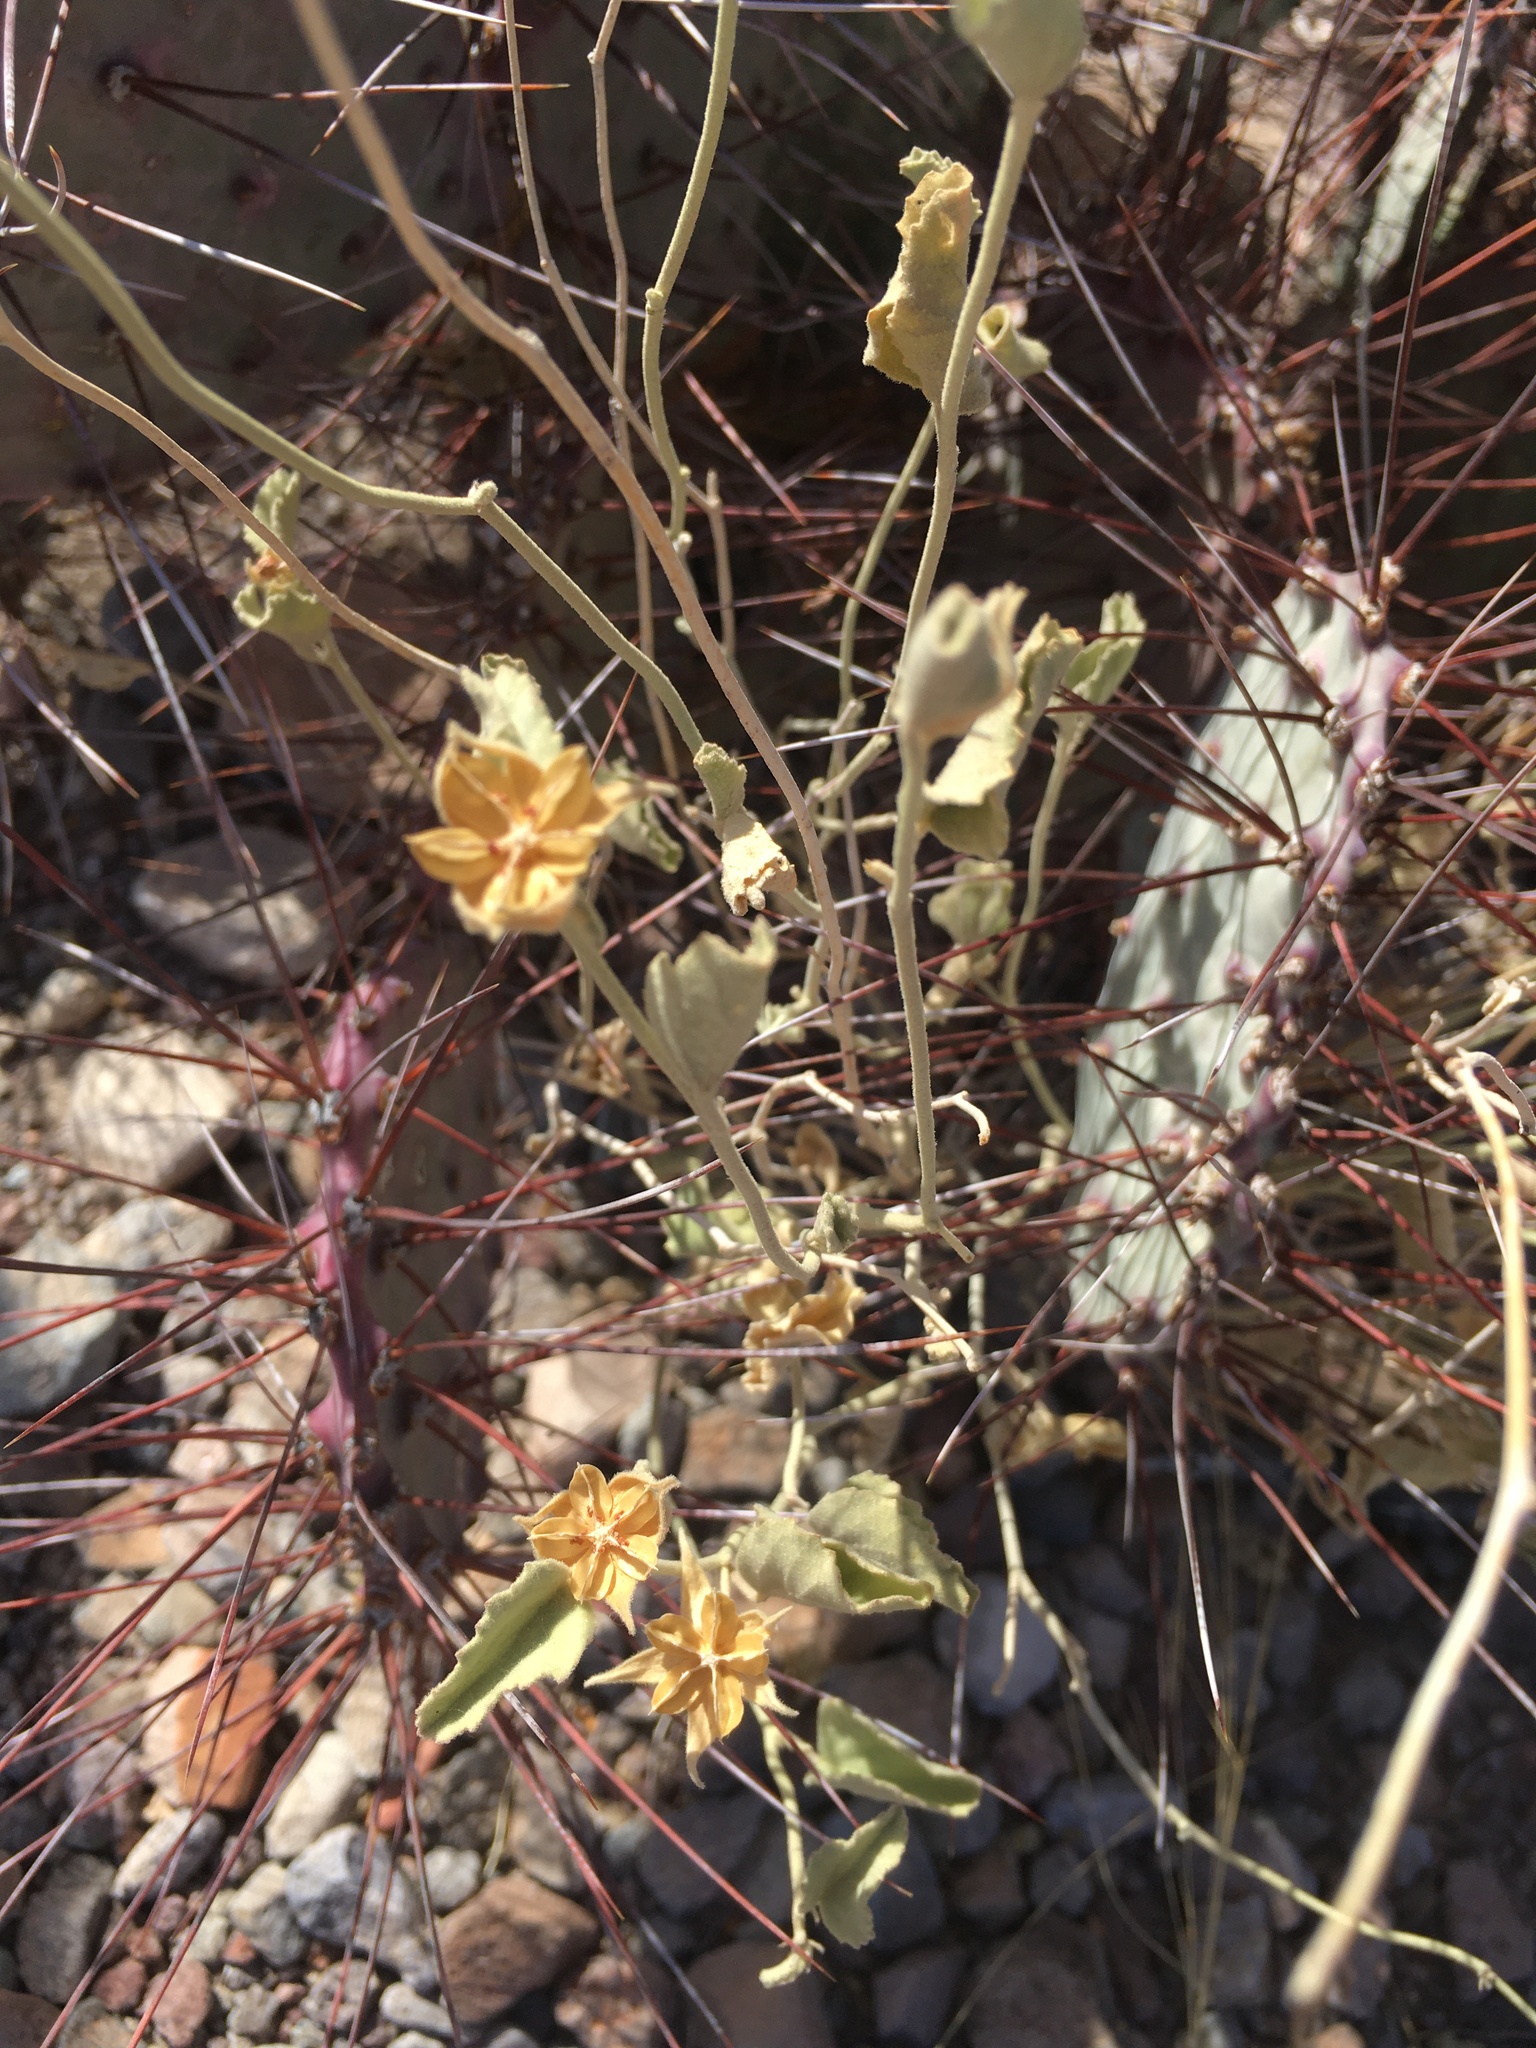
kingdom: Plantae
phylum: Tracheophyta
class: Magnoliopsida
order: Malvales
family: Malvaceae
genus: Hibiscus
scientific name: Hibiscus denudatus
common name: Paleface
